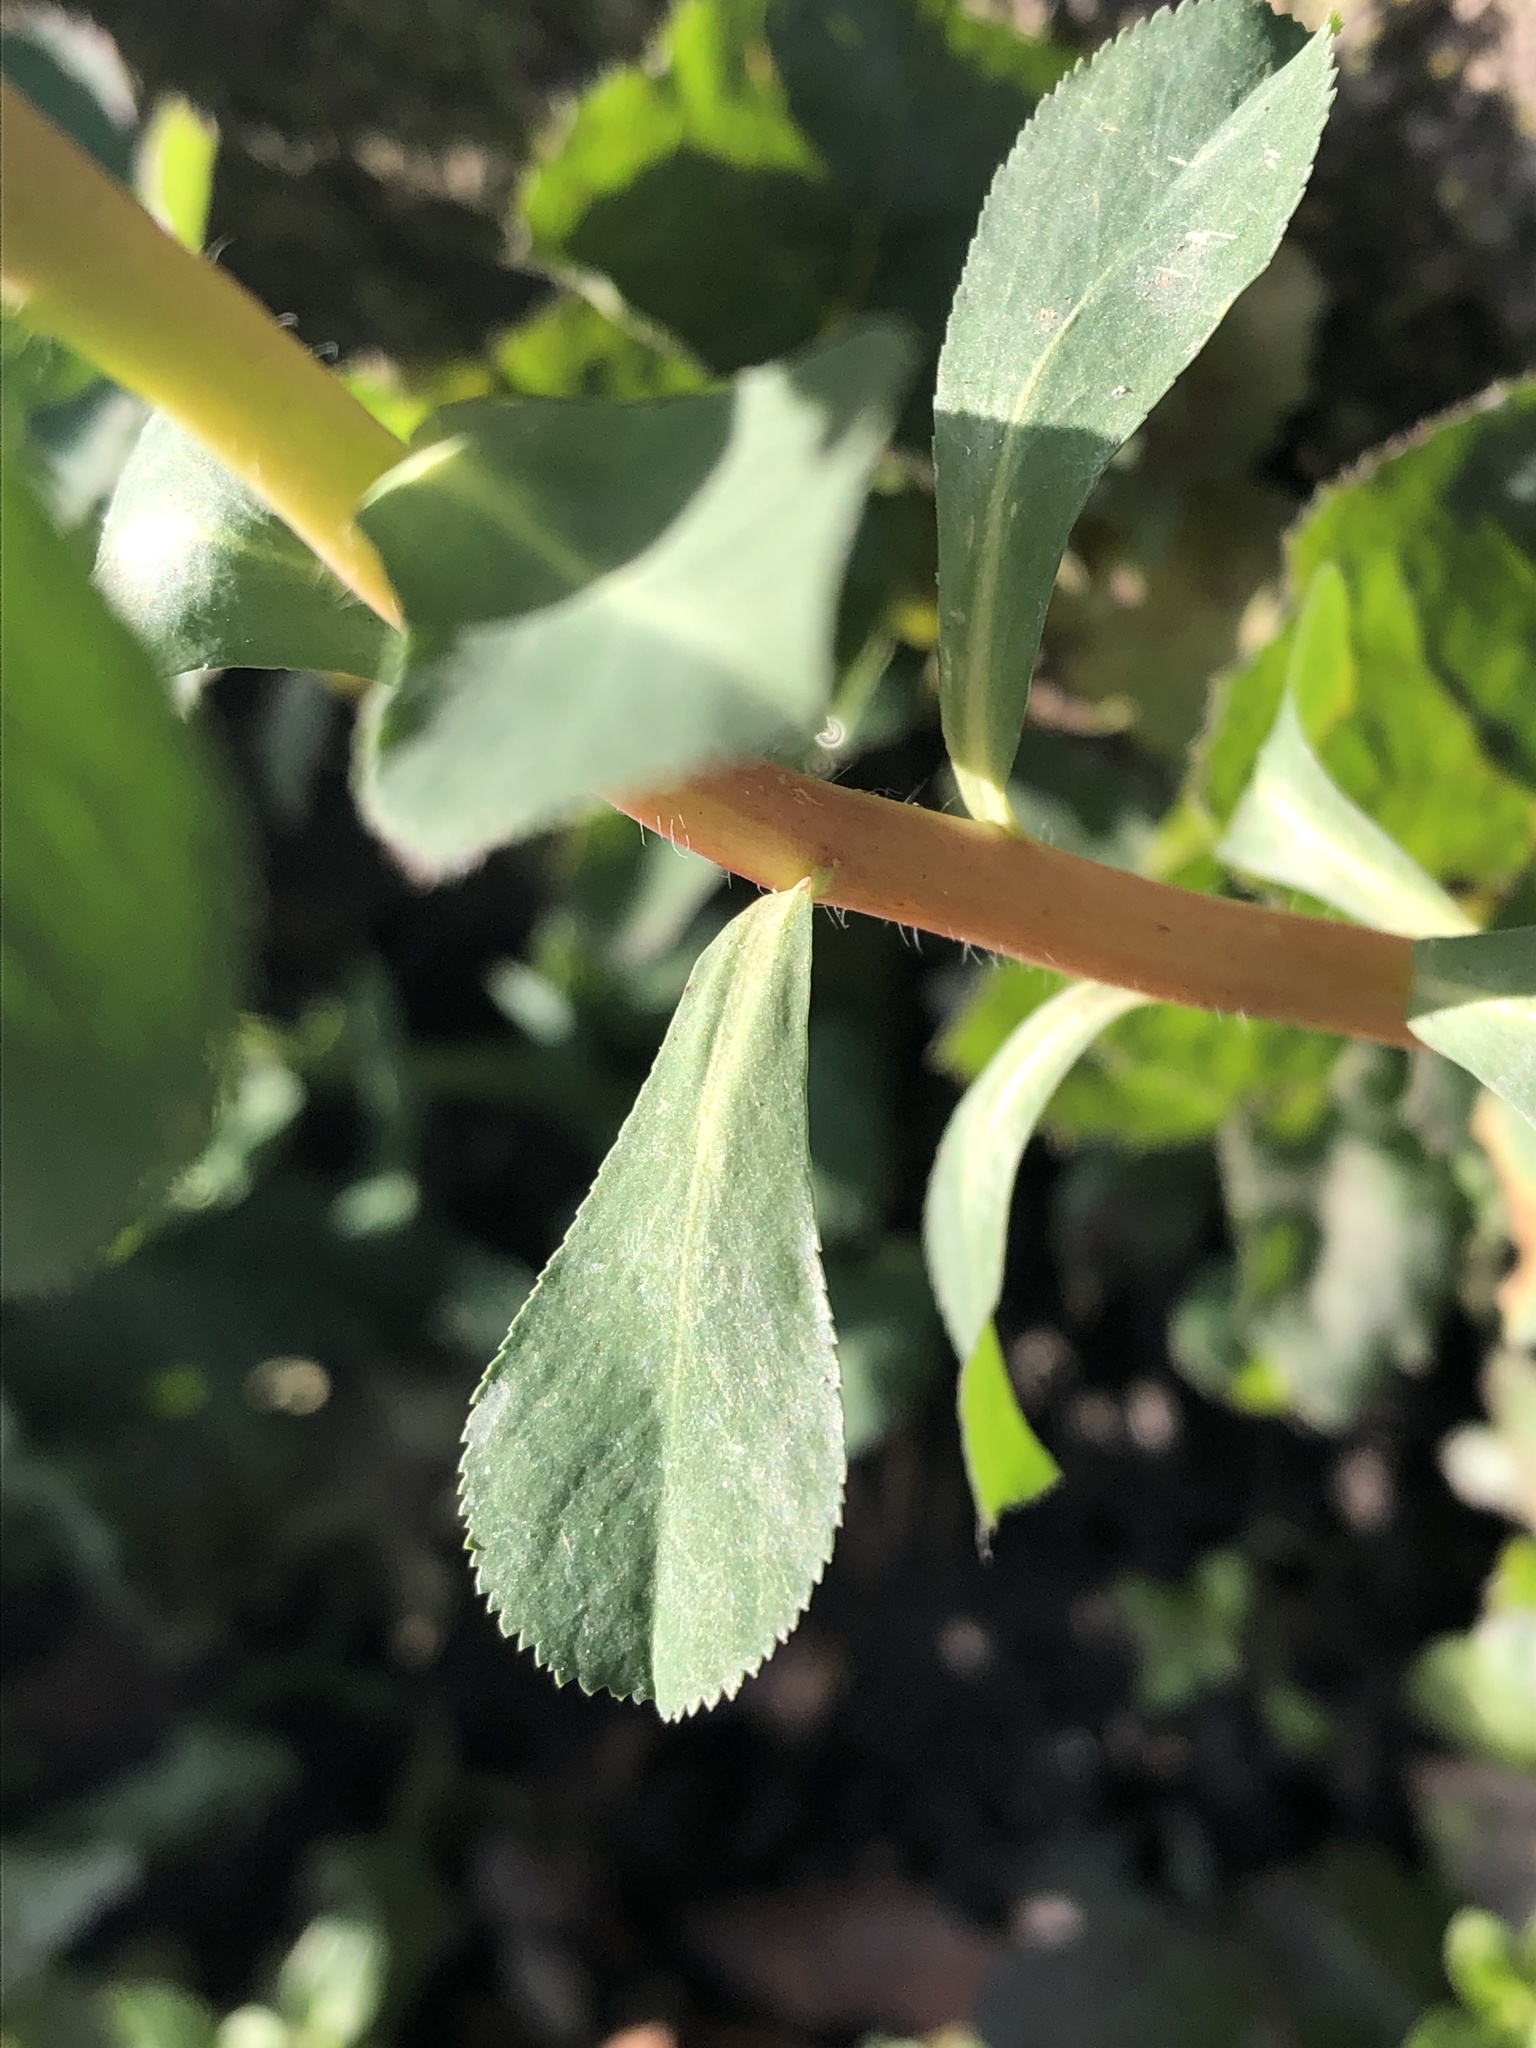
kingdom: Plantae
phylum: Tracheophyta
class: Magnoliopsida
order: Malpighiales
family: Euphorbiaceae
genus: Euphorbia
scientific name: Euphorbia helioscopia
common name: Sun spurge
